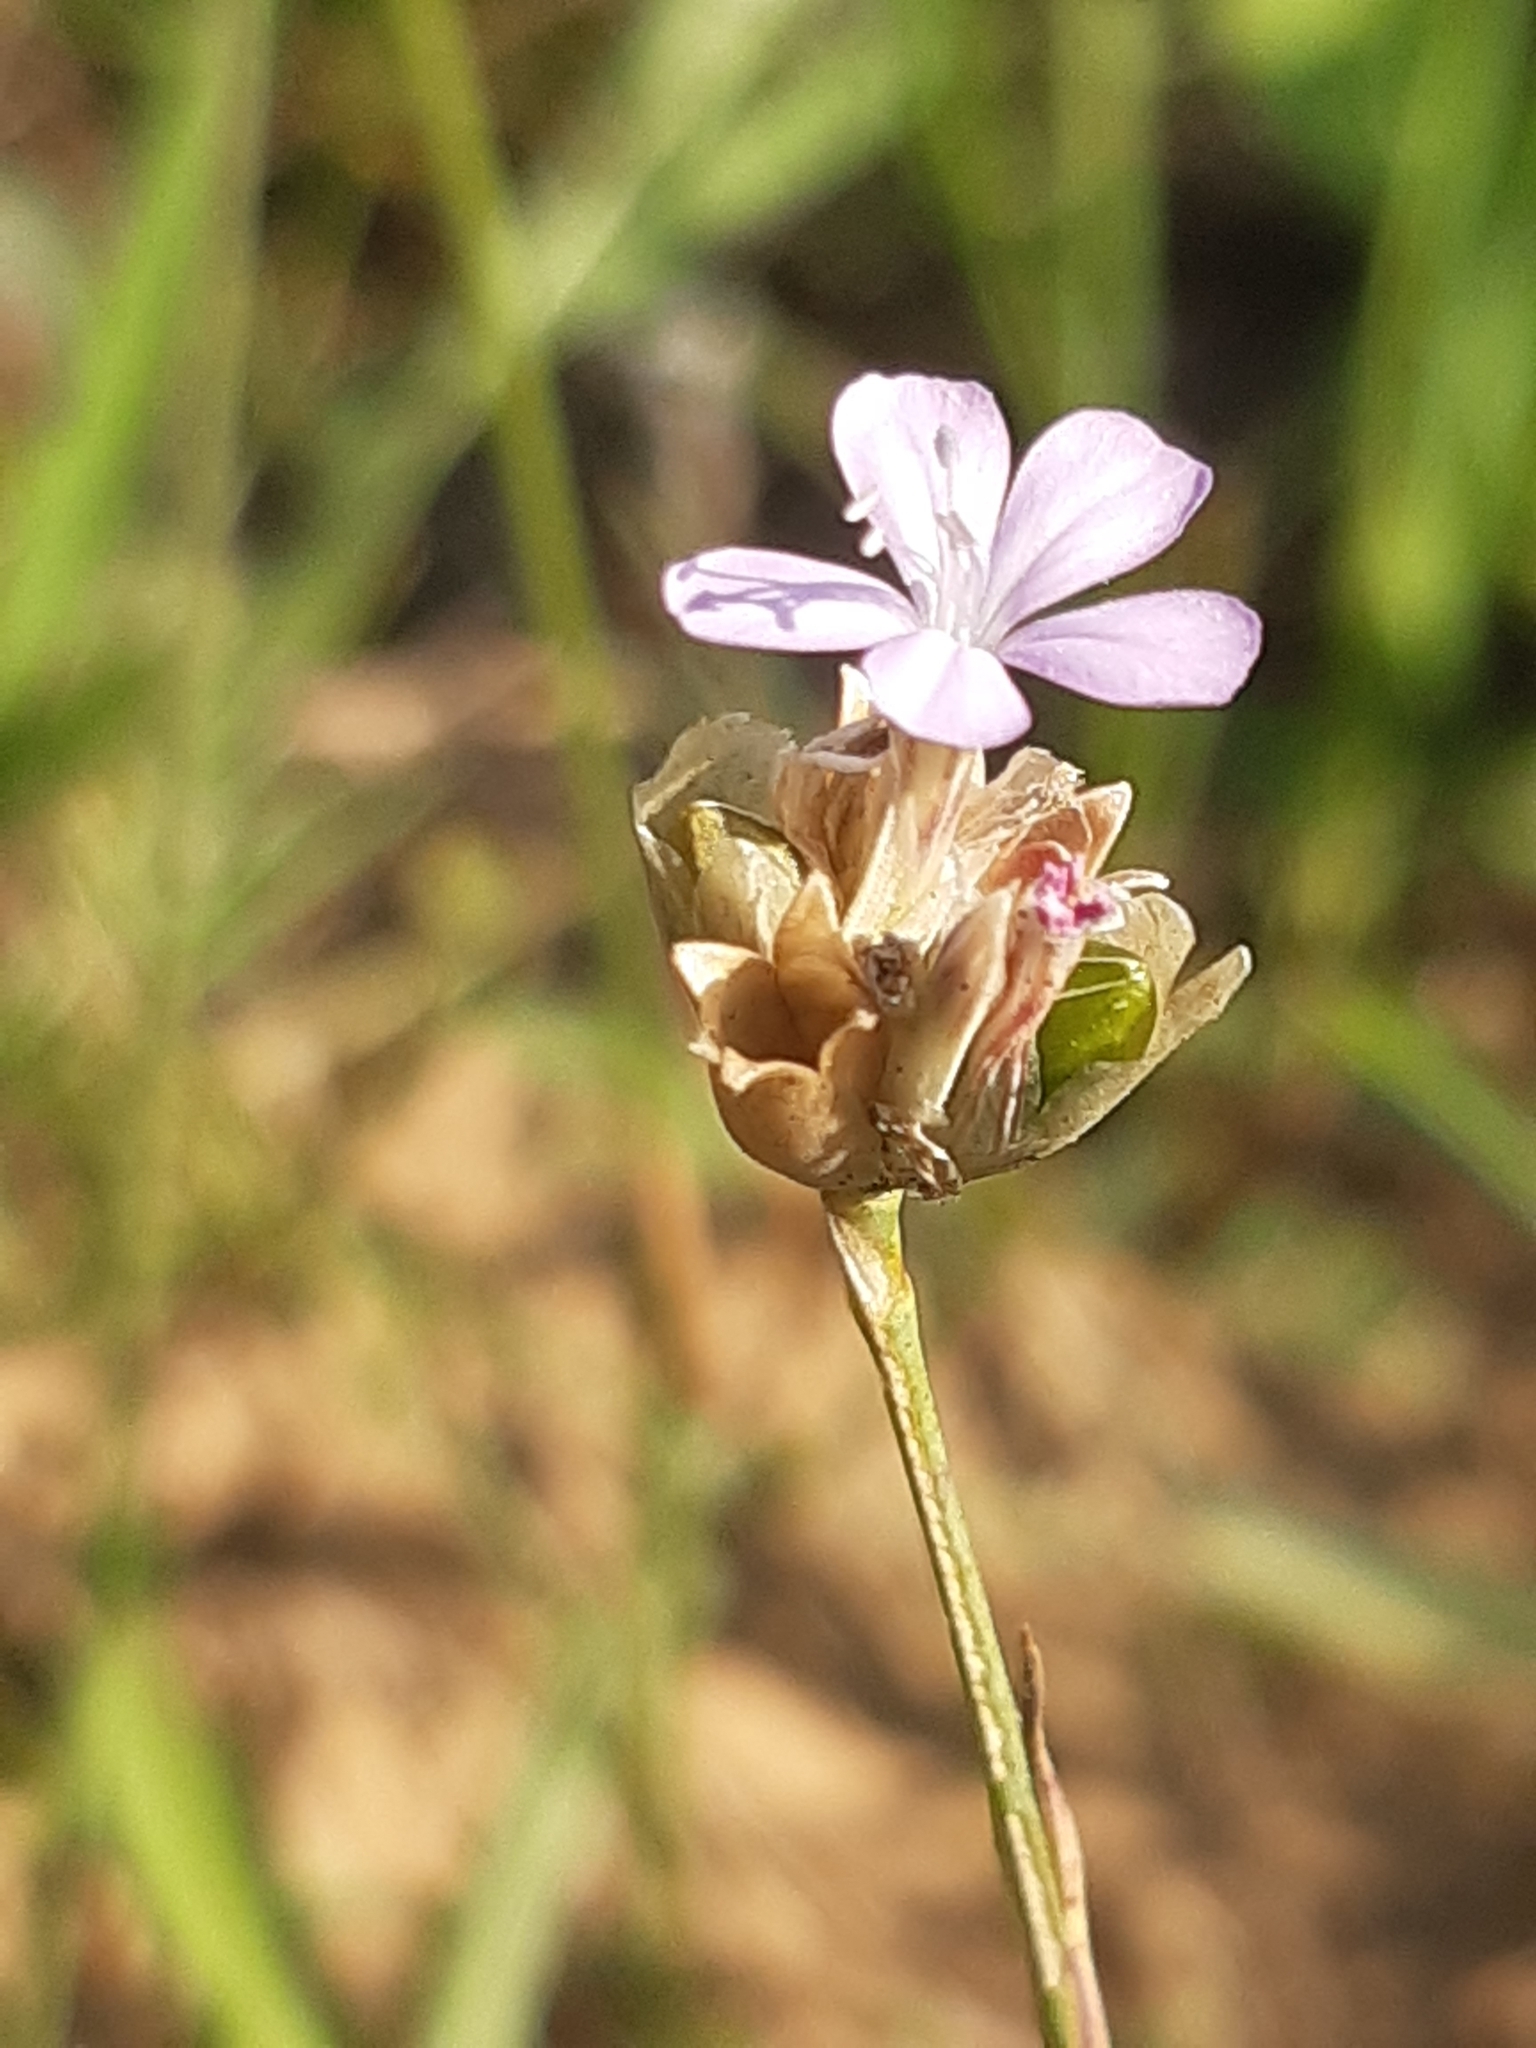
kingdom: Plantae
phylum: Tracheophyta
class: Magnoliopsida
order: Caryophyllales
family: Caryophyllaceae
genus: Petrorhagia
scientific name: Petrorhagia prolifera
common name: Proliferous pink
